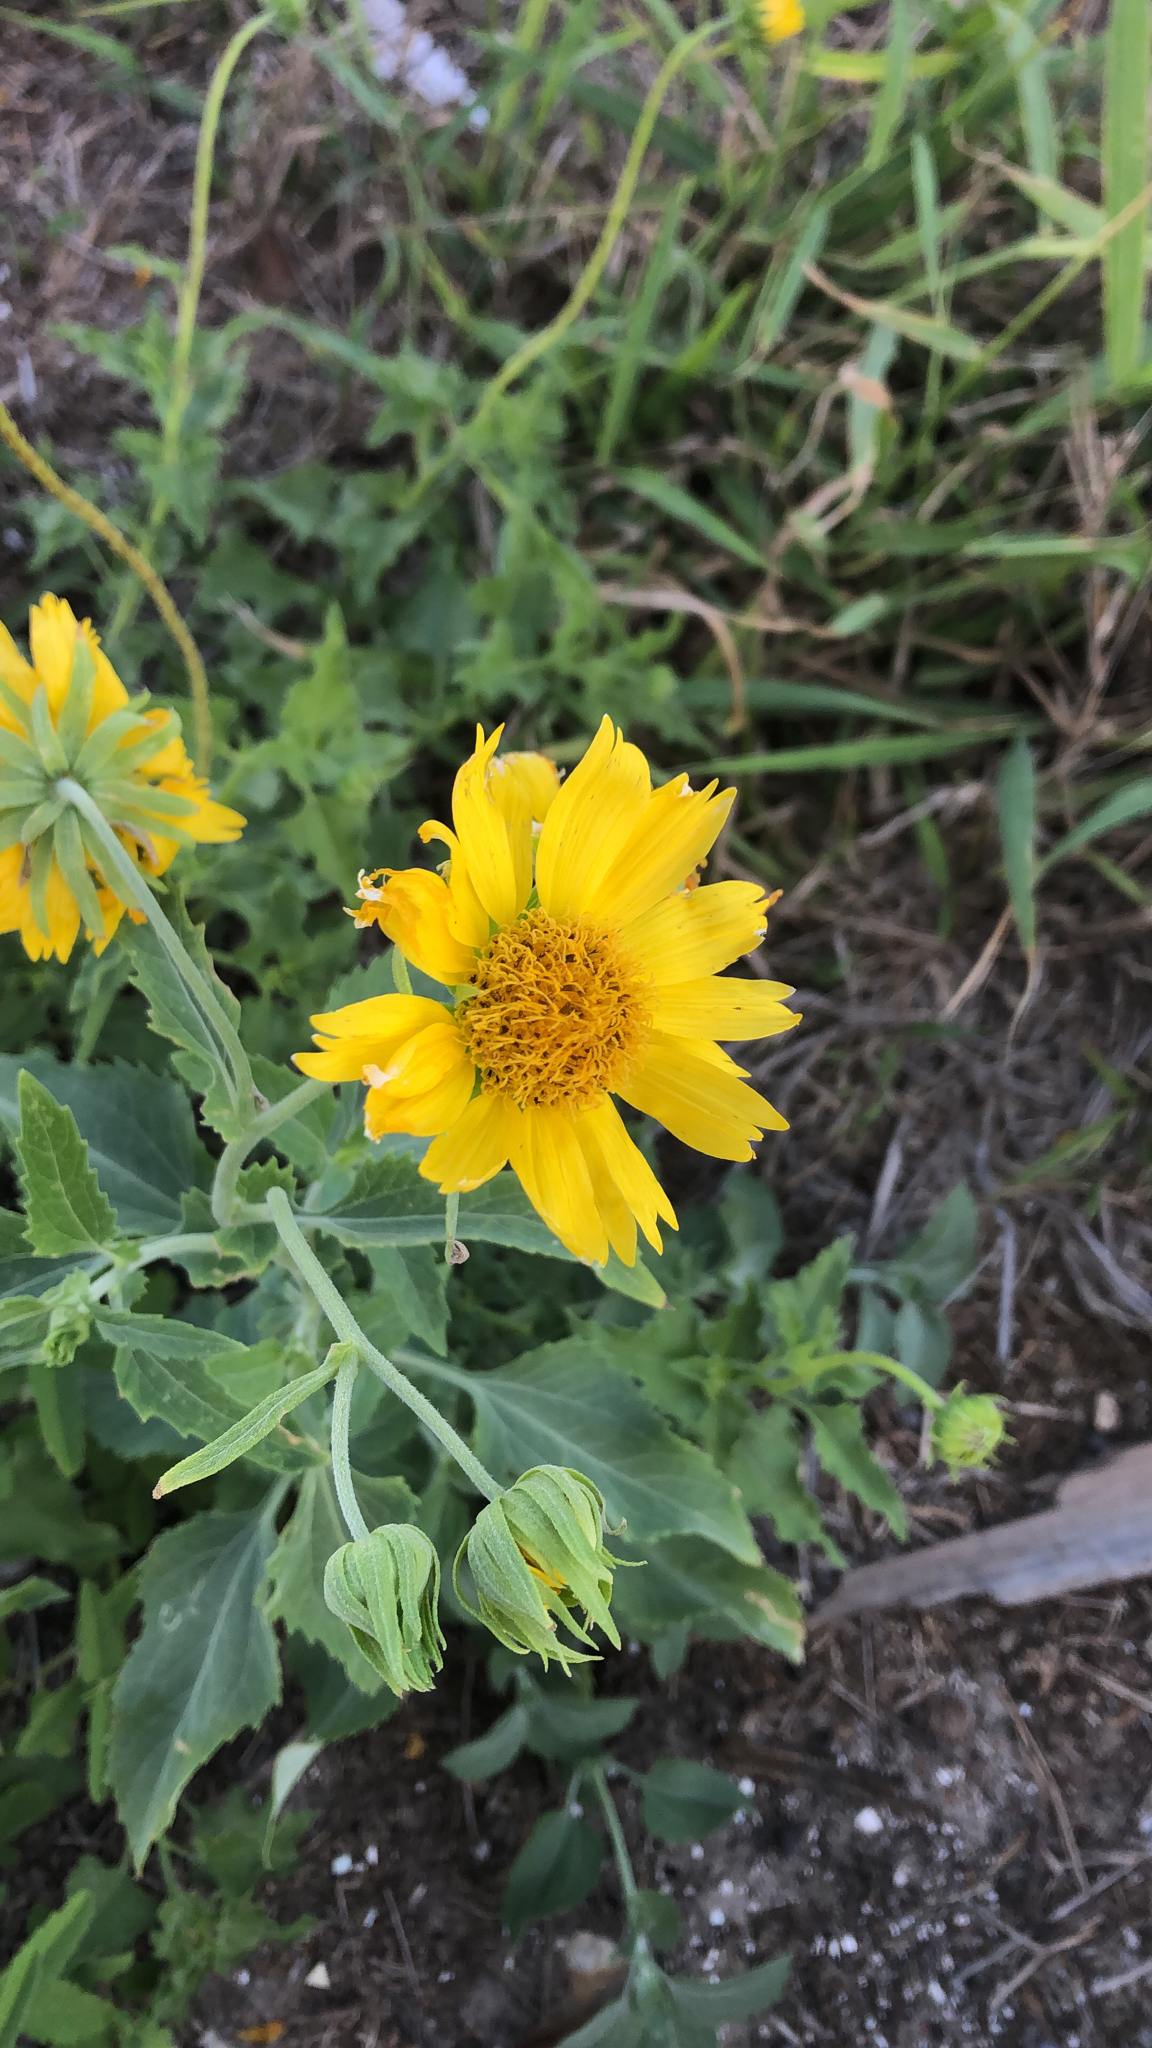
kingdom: Plantae
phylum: Tracheophyta
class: Magnoliopsida
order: Asterales
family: Asteraceae
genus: Verbesina
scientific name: Verbesina encelioides
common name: Golden crownbeard
